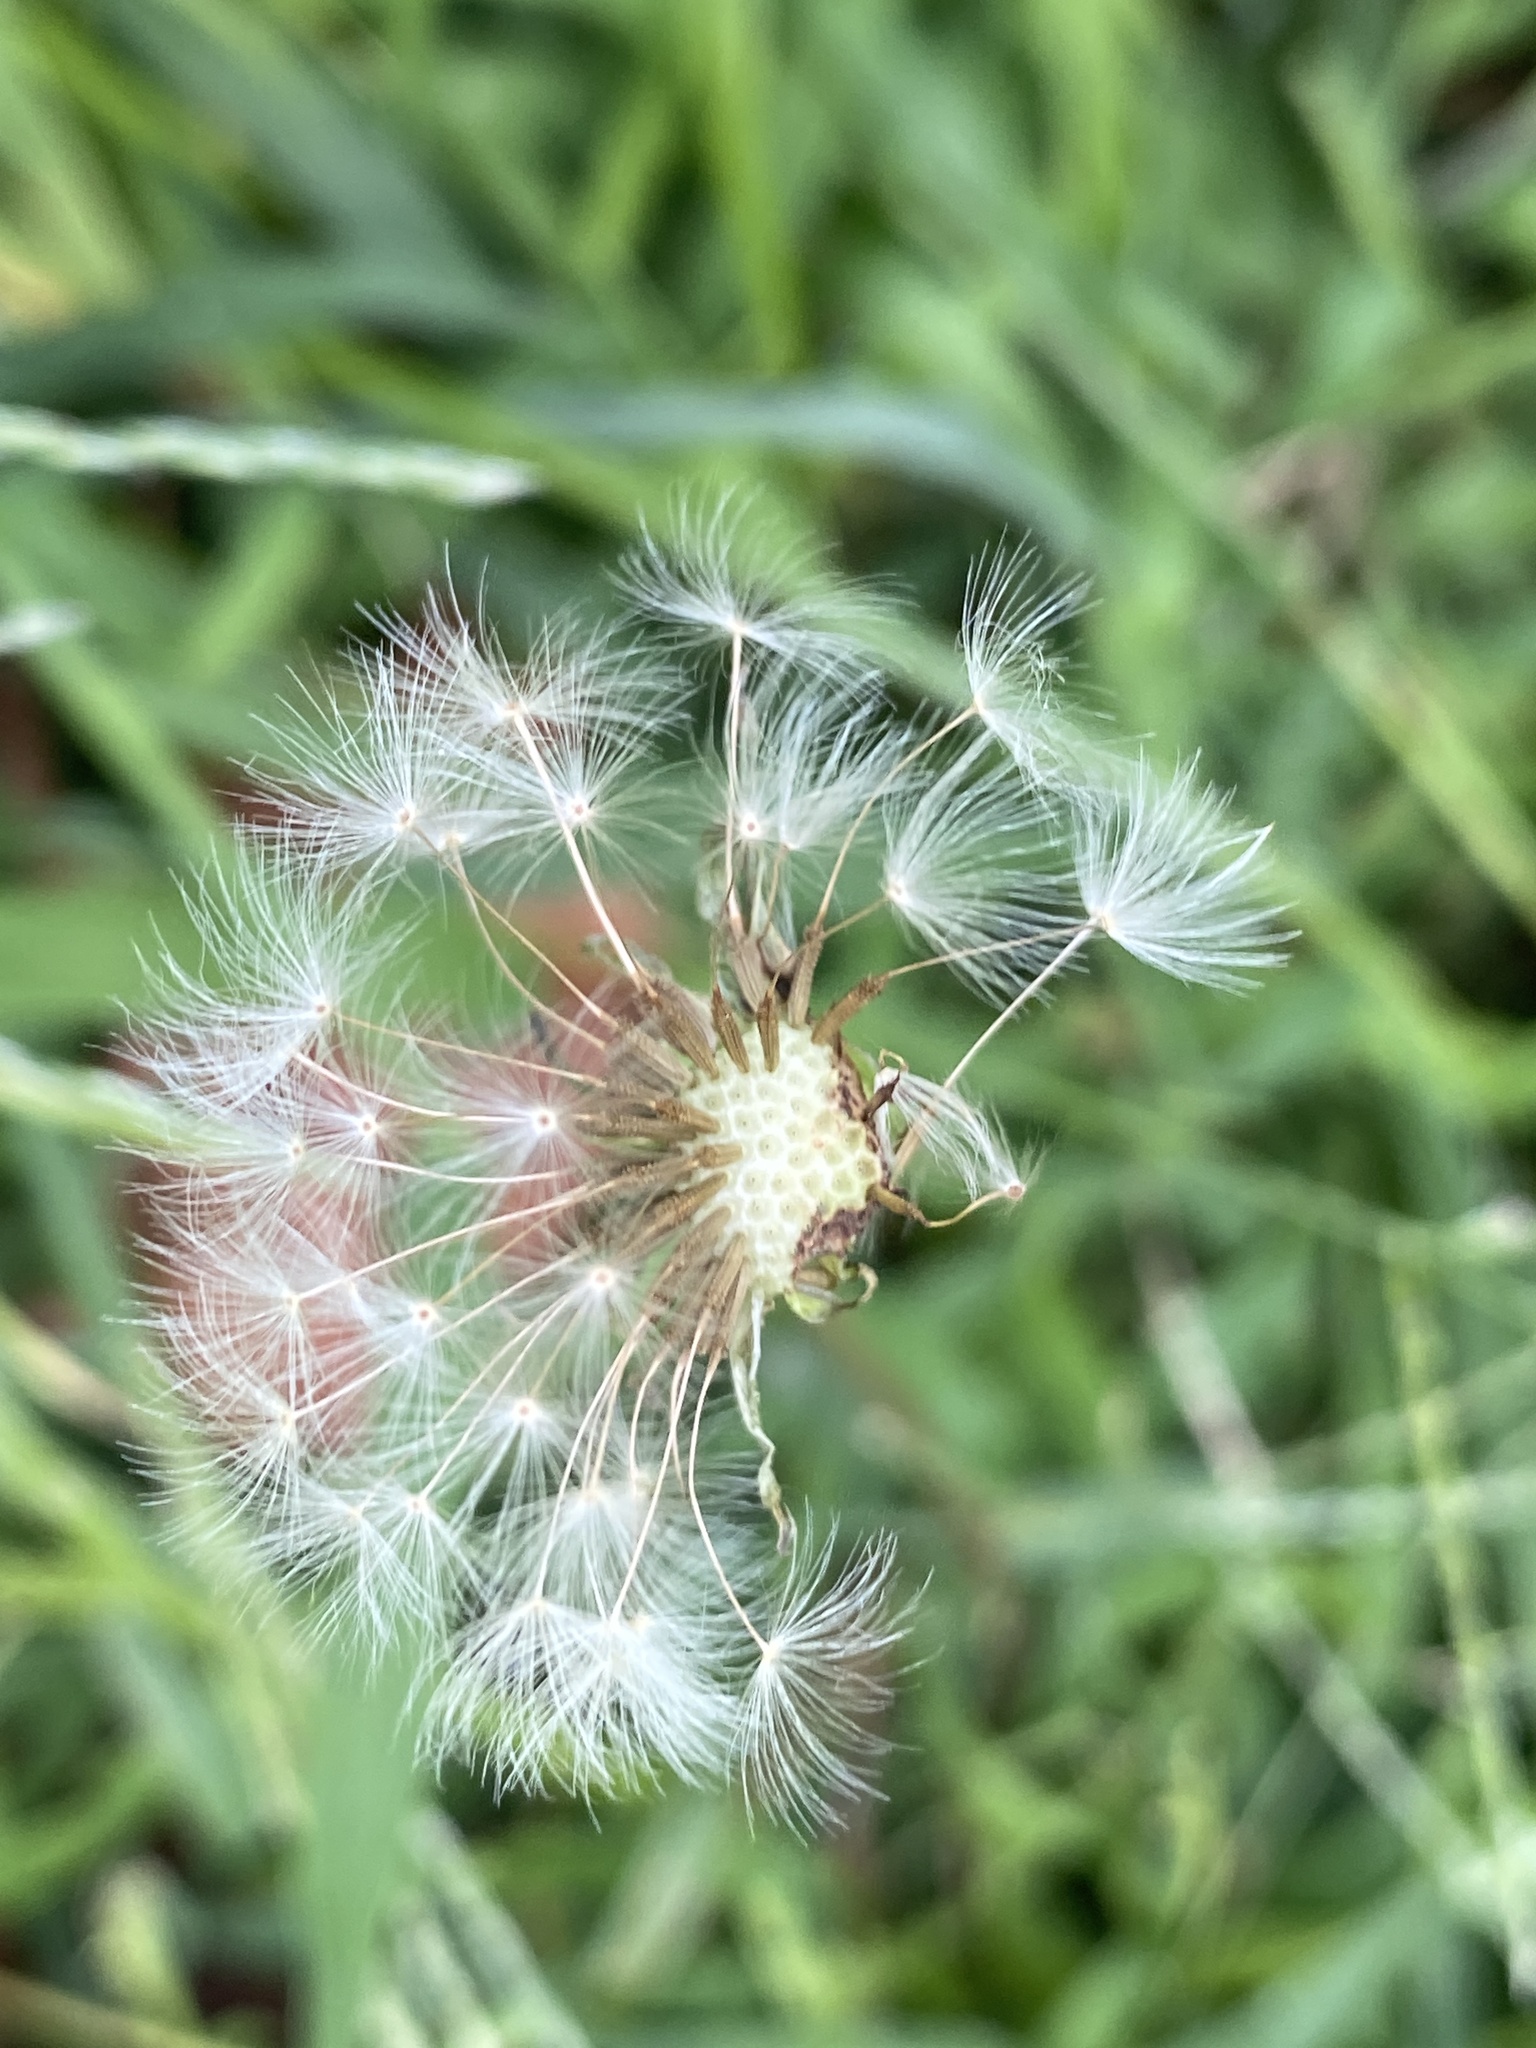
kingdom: Plantae
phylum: Tracheophyta
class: Magnoliopsida
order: Asterales
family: Asteraceae
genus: Taraxacum
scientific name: Taraxacum officinale
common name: Common dandelion
